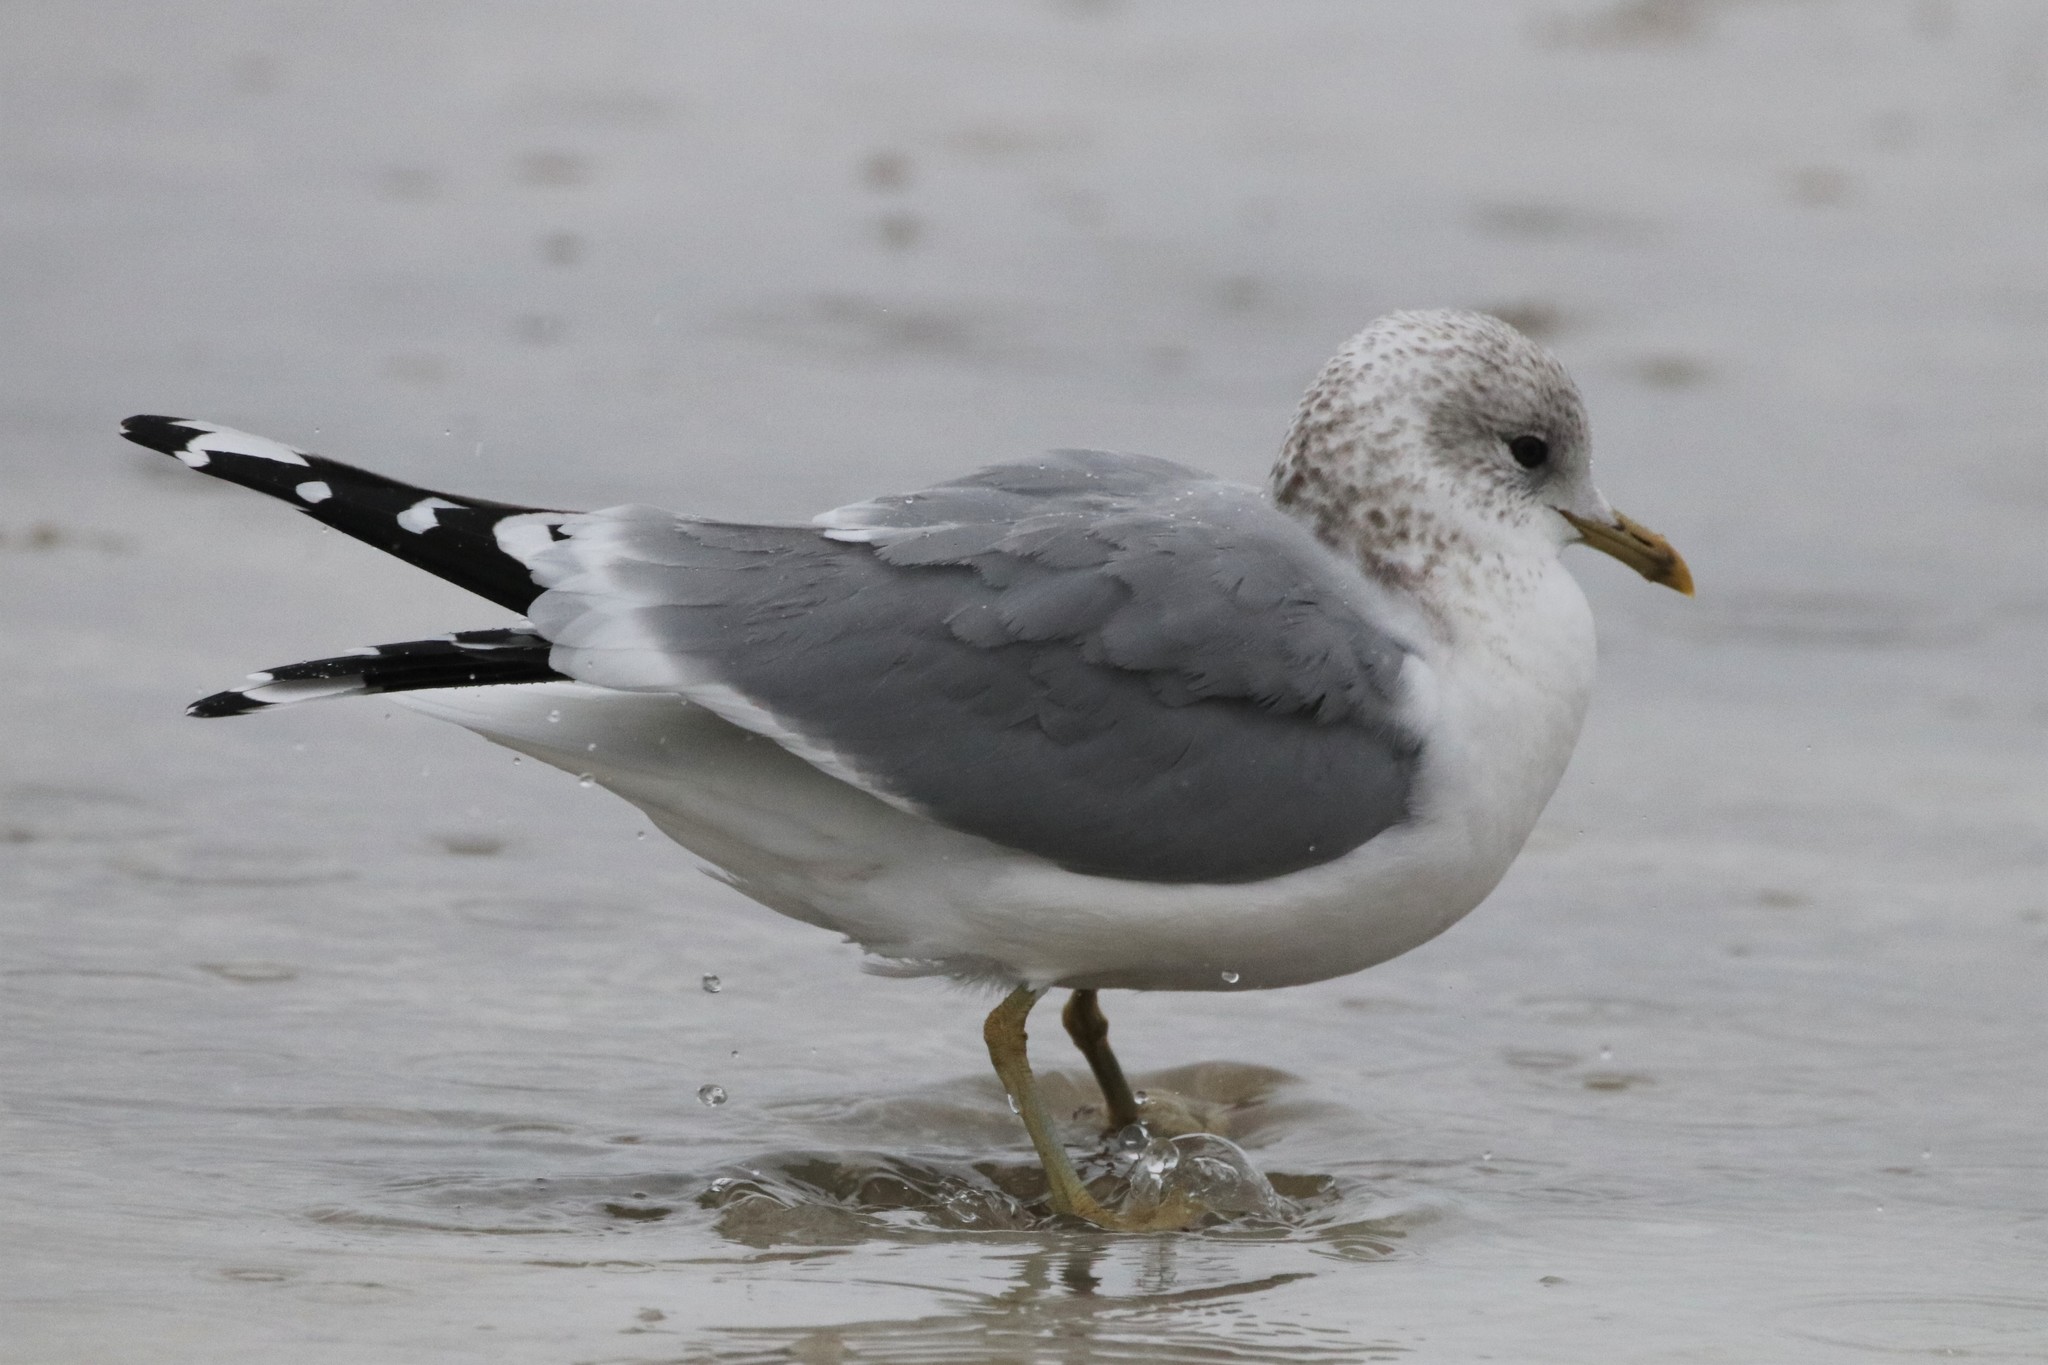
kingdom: Animalia
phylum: Chordata
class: Aves
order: Charadriiformes
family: Laridae
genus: Larus
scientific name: Larus canus
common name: Mew gull
